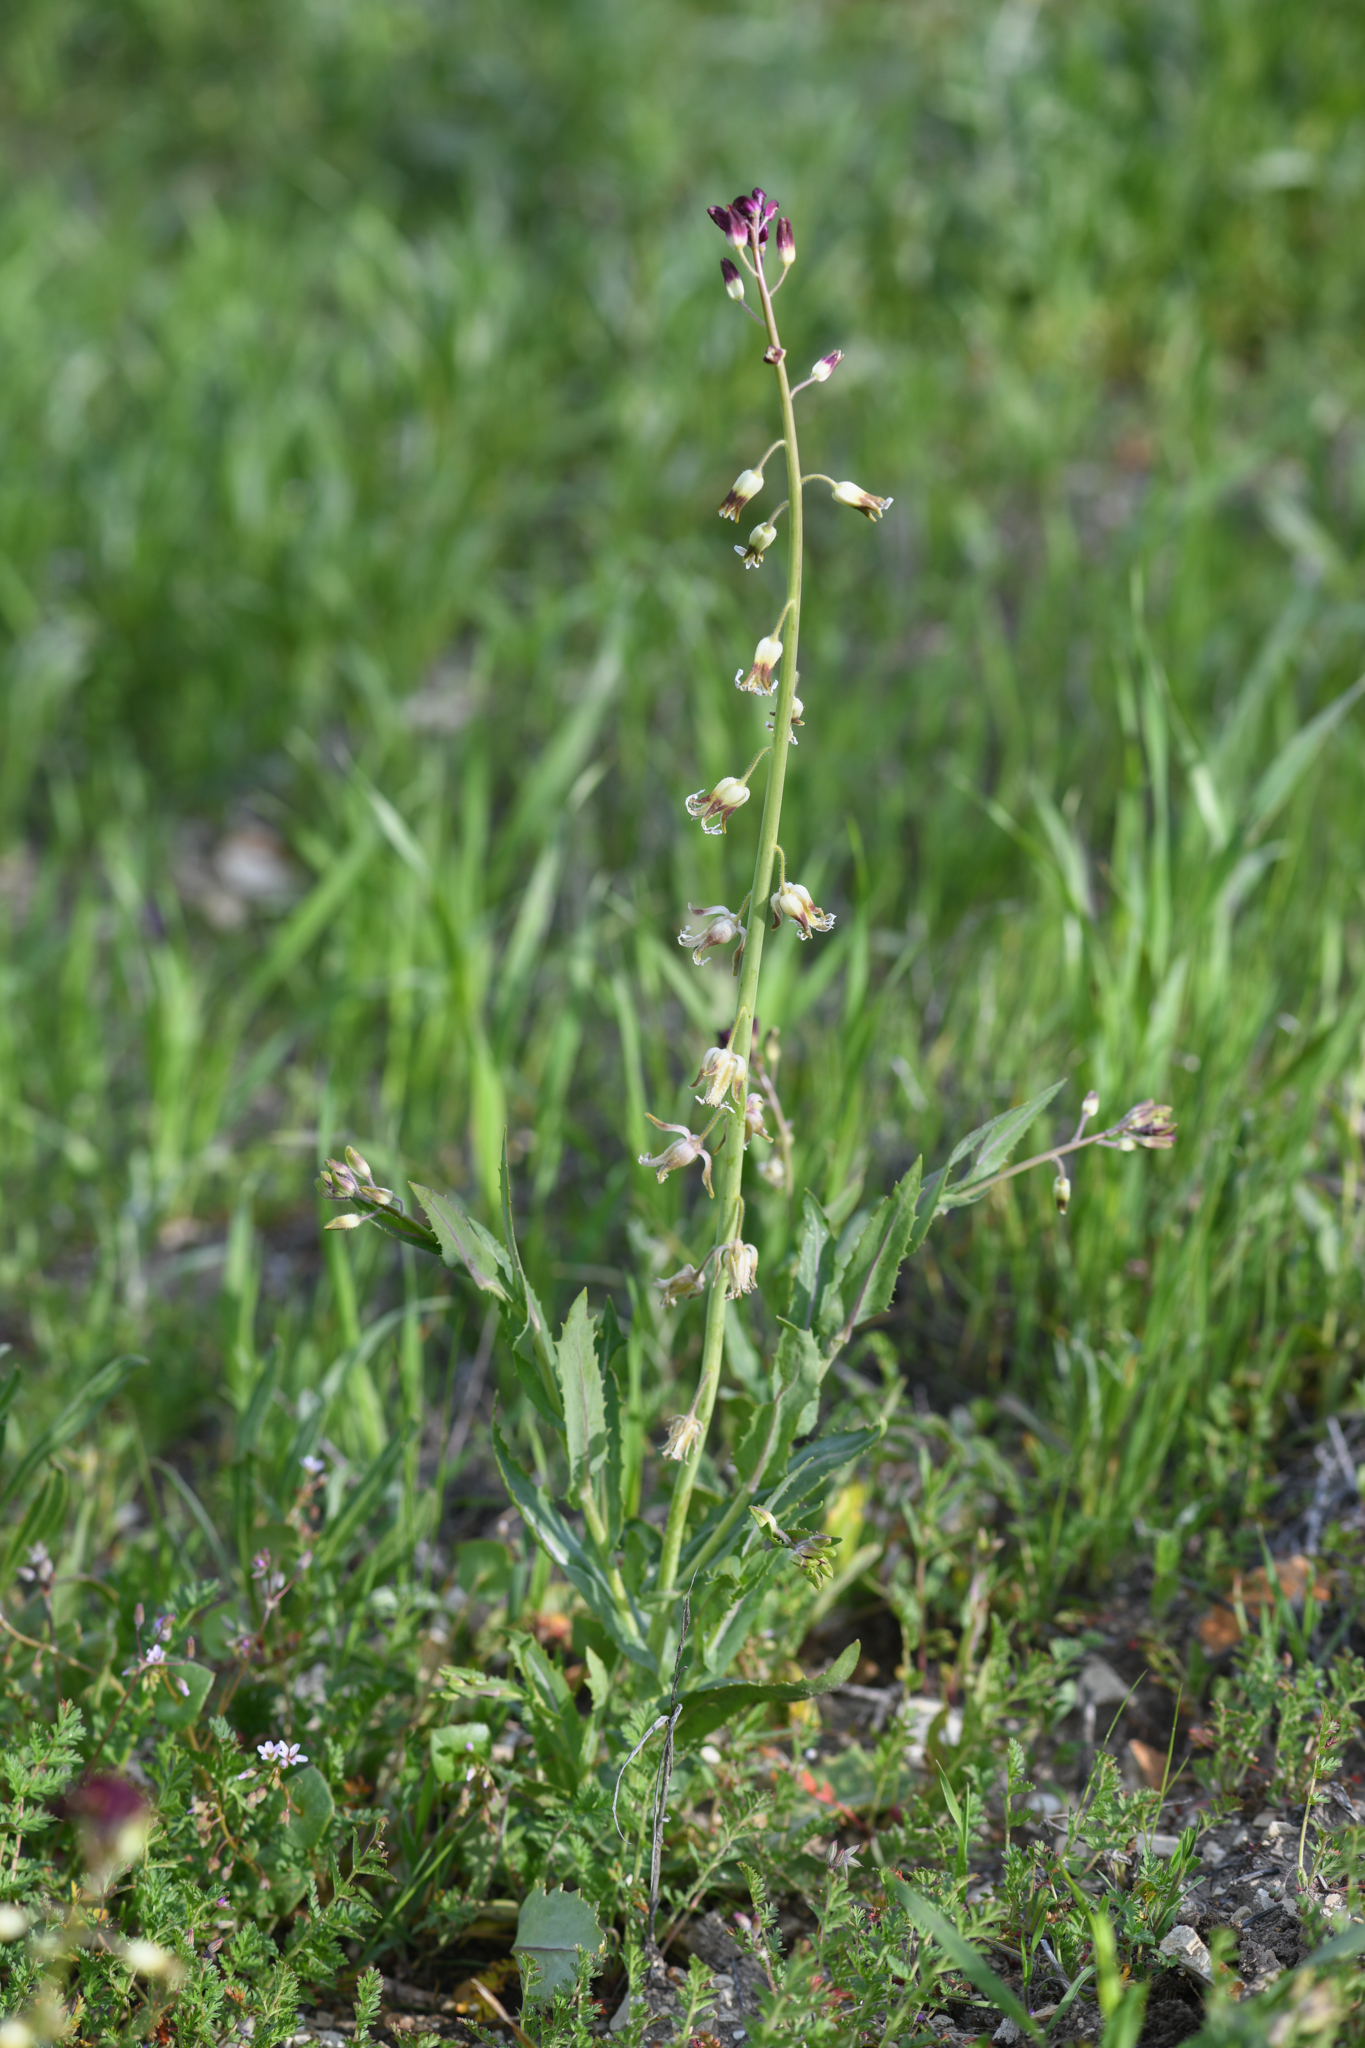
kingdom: Plantae
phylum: Tracheophyta
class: Magnoliopsida
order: Brassicales
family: Brassicaceae
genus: Streptanthus
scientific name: Streptanthus lemmonii
